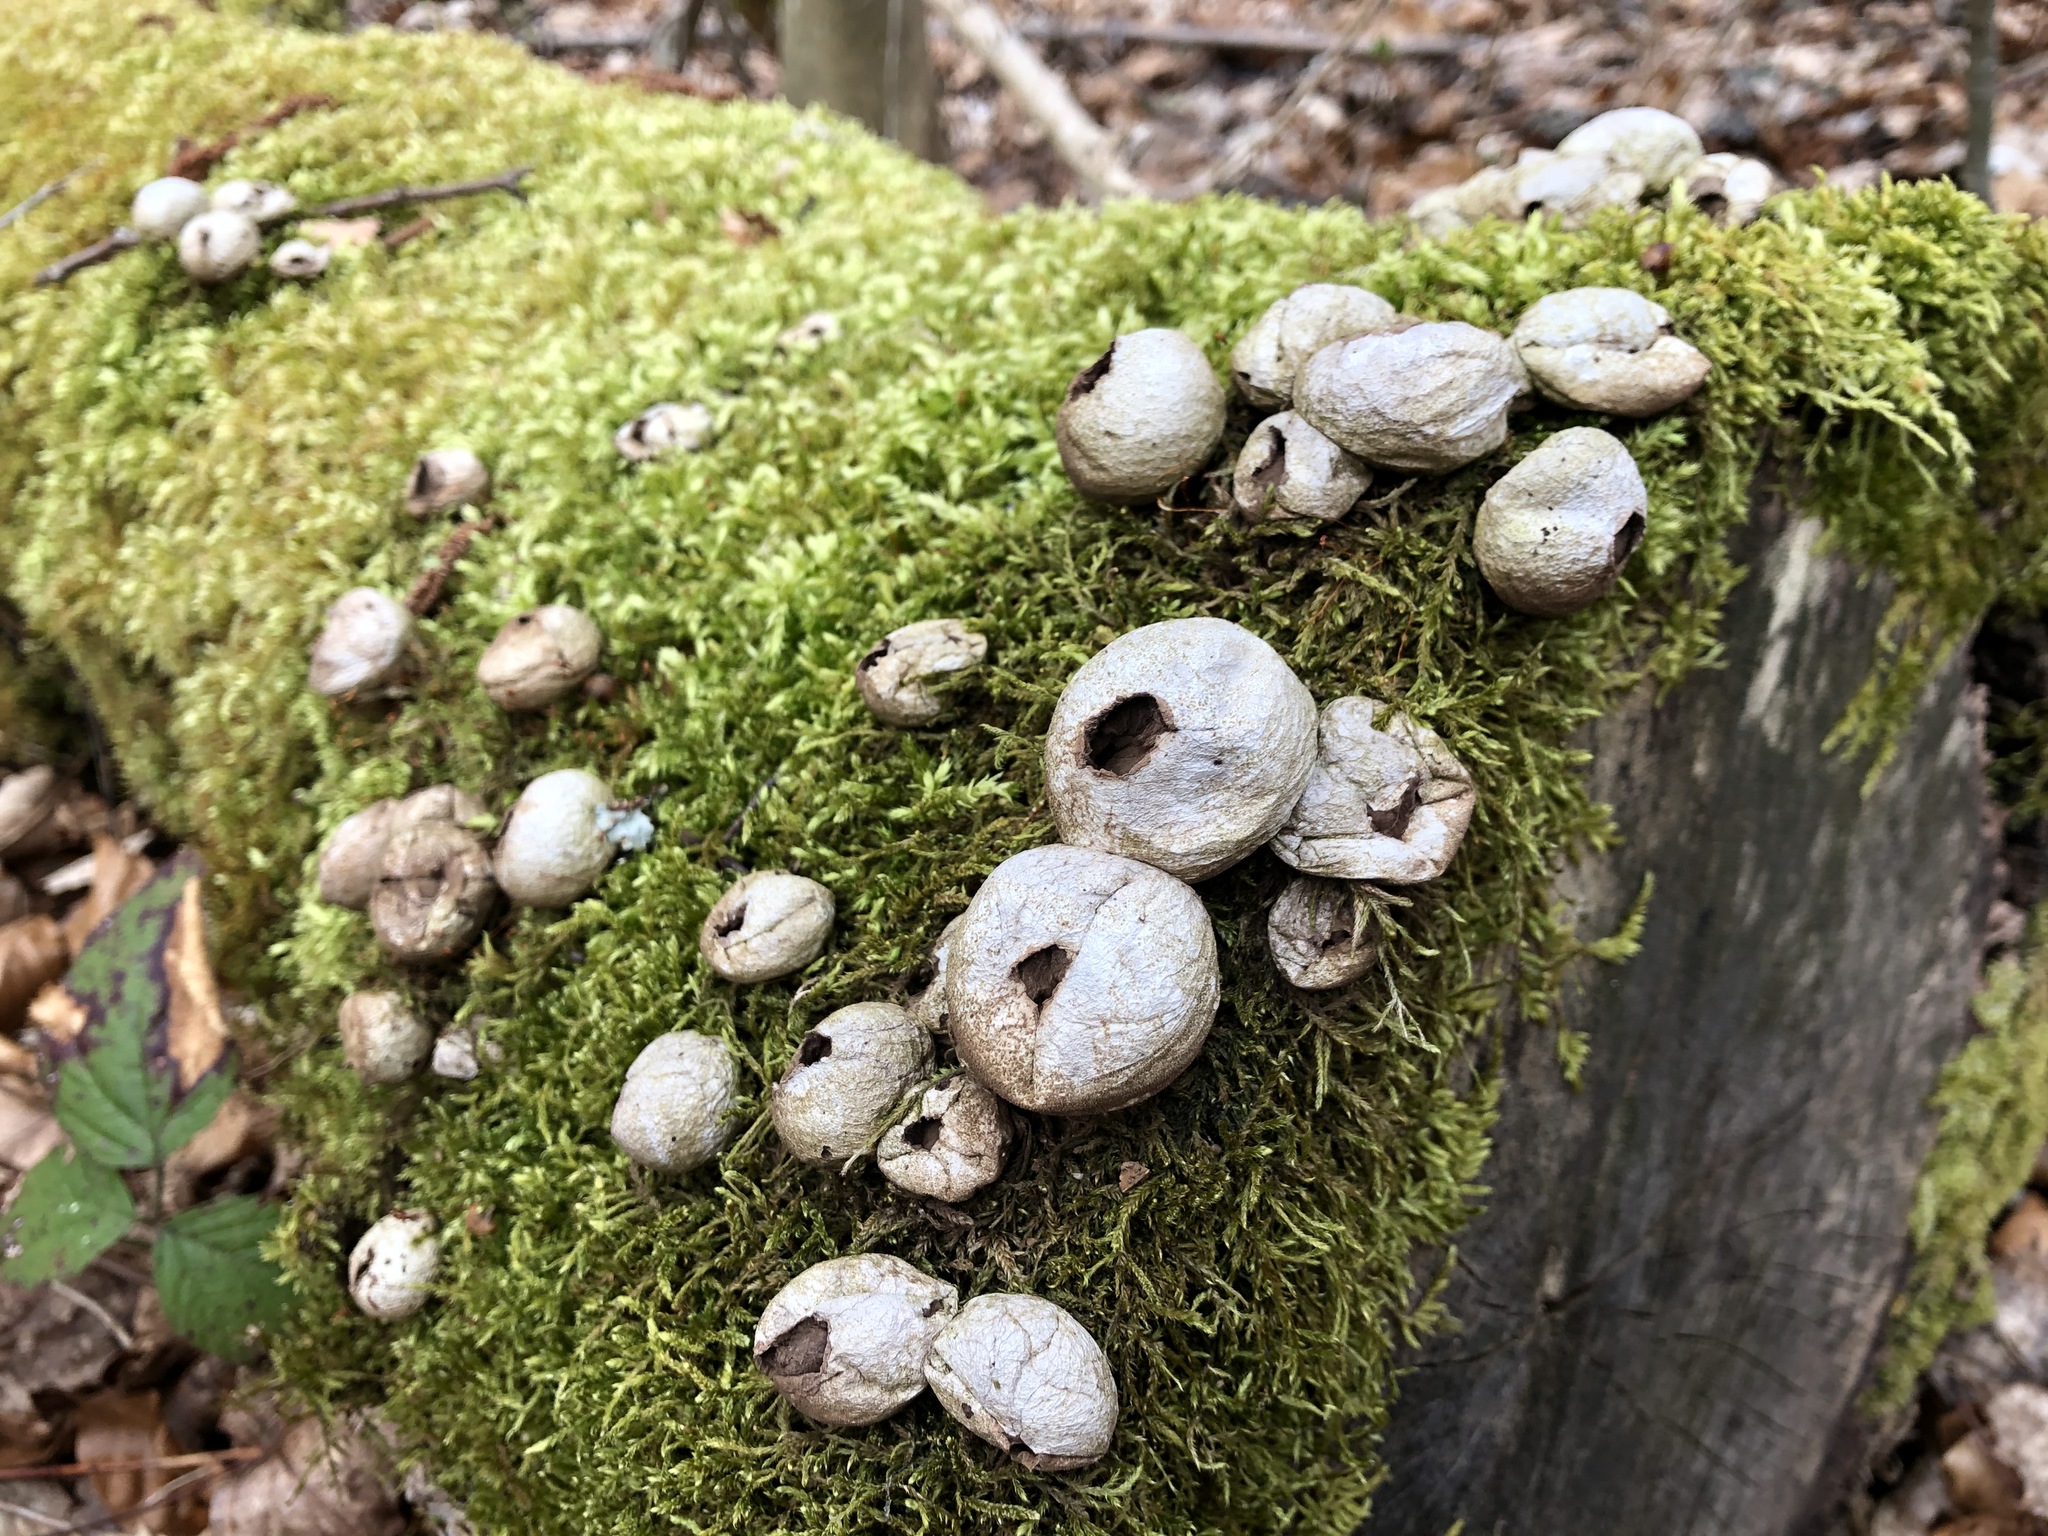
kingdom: Fungi
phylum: Basidiomycota
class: Agaricomycetes
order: Agaricales
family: Lycoperdaceae
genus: Apioperdon
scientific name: Apioperdon pyriforme
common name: Pear-shaped puffball
